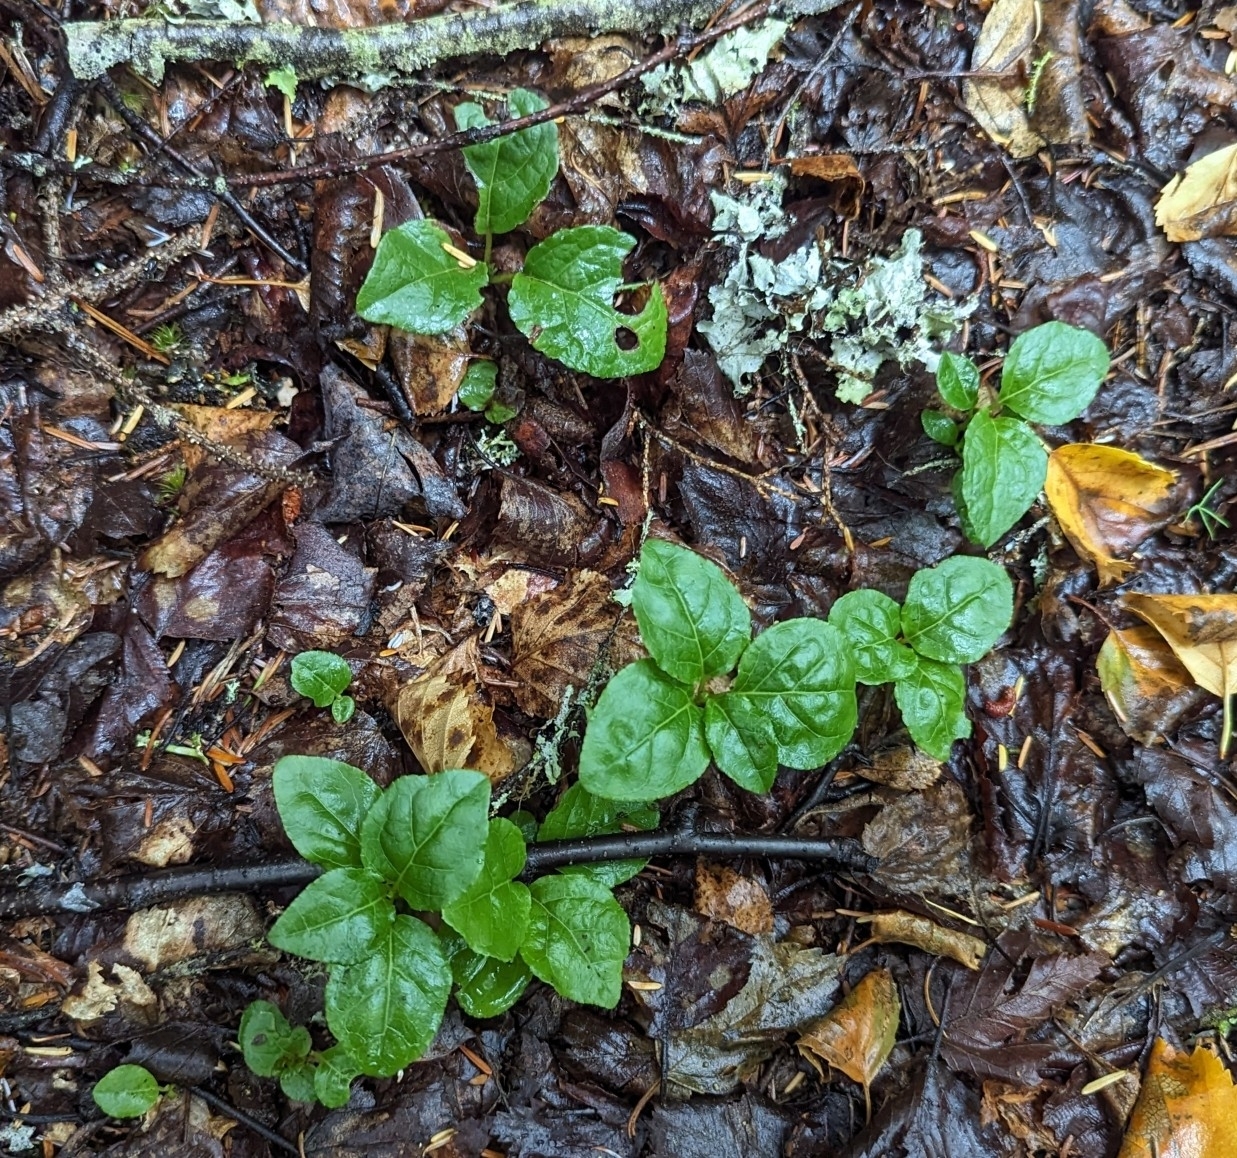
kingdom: Plantae
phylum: Tracheophyta
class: Magnoliopsida
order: Ericales
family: Ericaceae
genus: Orthilia
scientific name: Orthilia secunda
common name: One-sided orthilia
